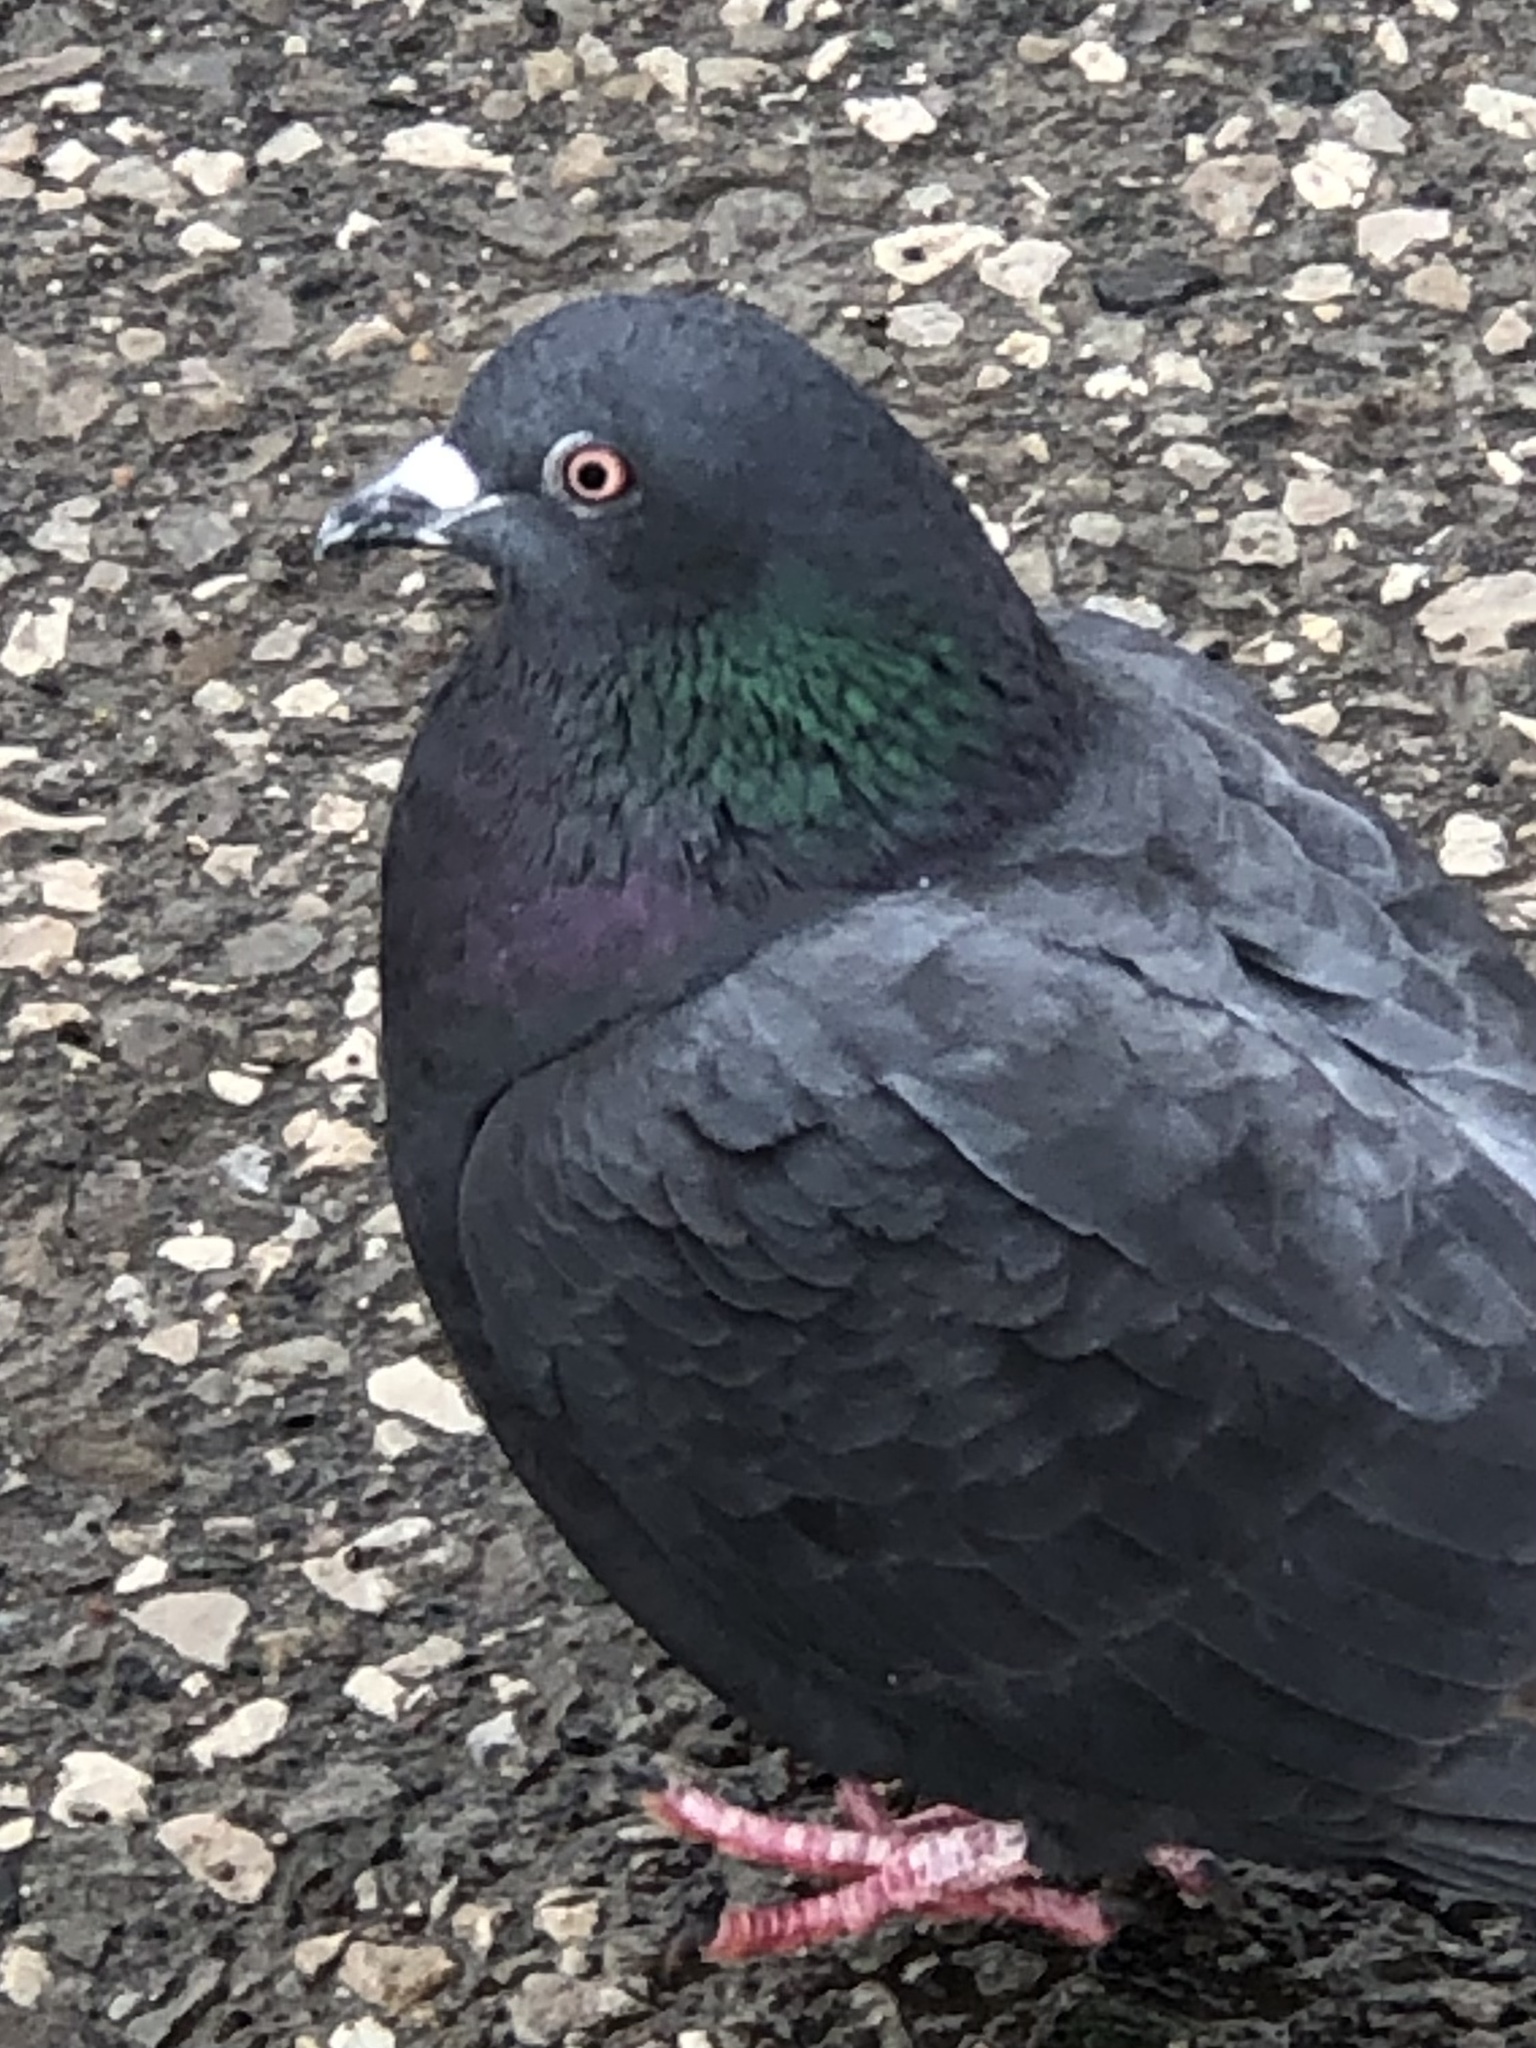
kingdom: Animalia
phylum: Chordata
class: Aves
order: Columbiformes
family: Columbidae
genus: Columba
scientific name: Columba livia
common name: Rock pigeon
